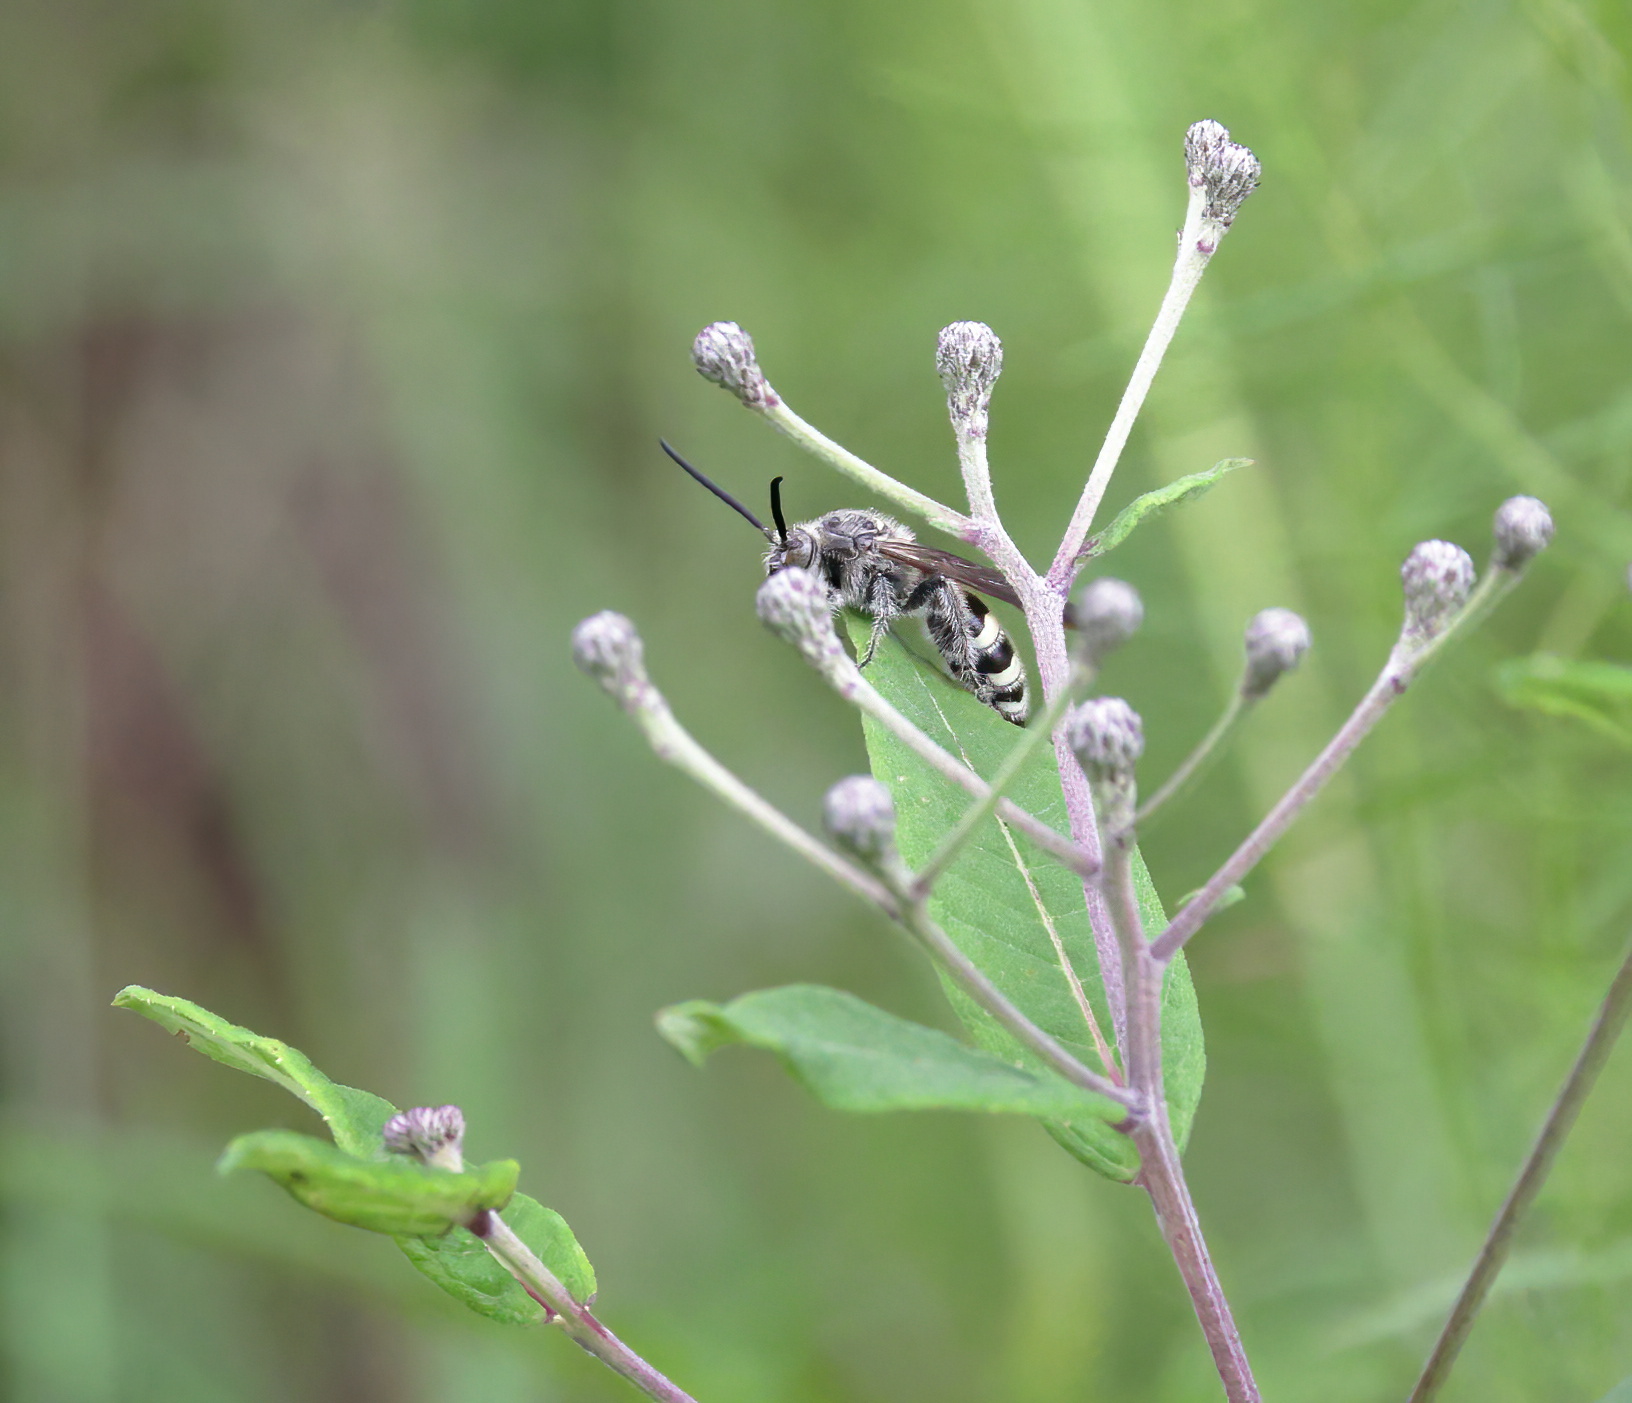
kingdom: Animalia
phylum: Arthropoda
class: Insecta
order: Hymenoptera
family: Scoliidae
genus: Dielis
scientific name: Dielis
